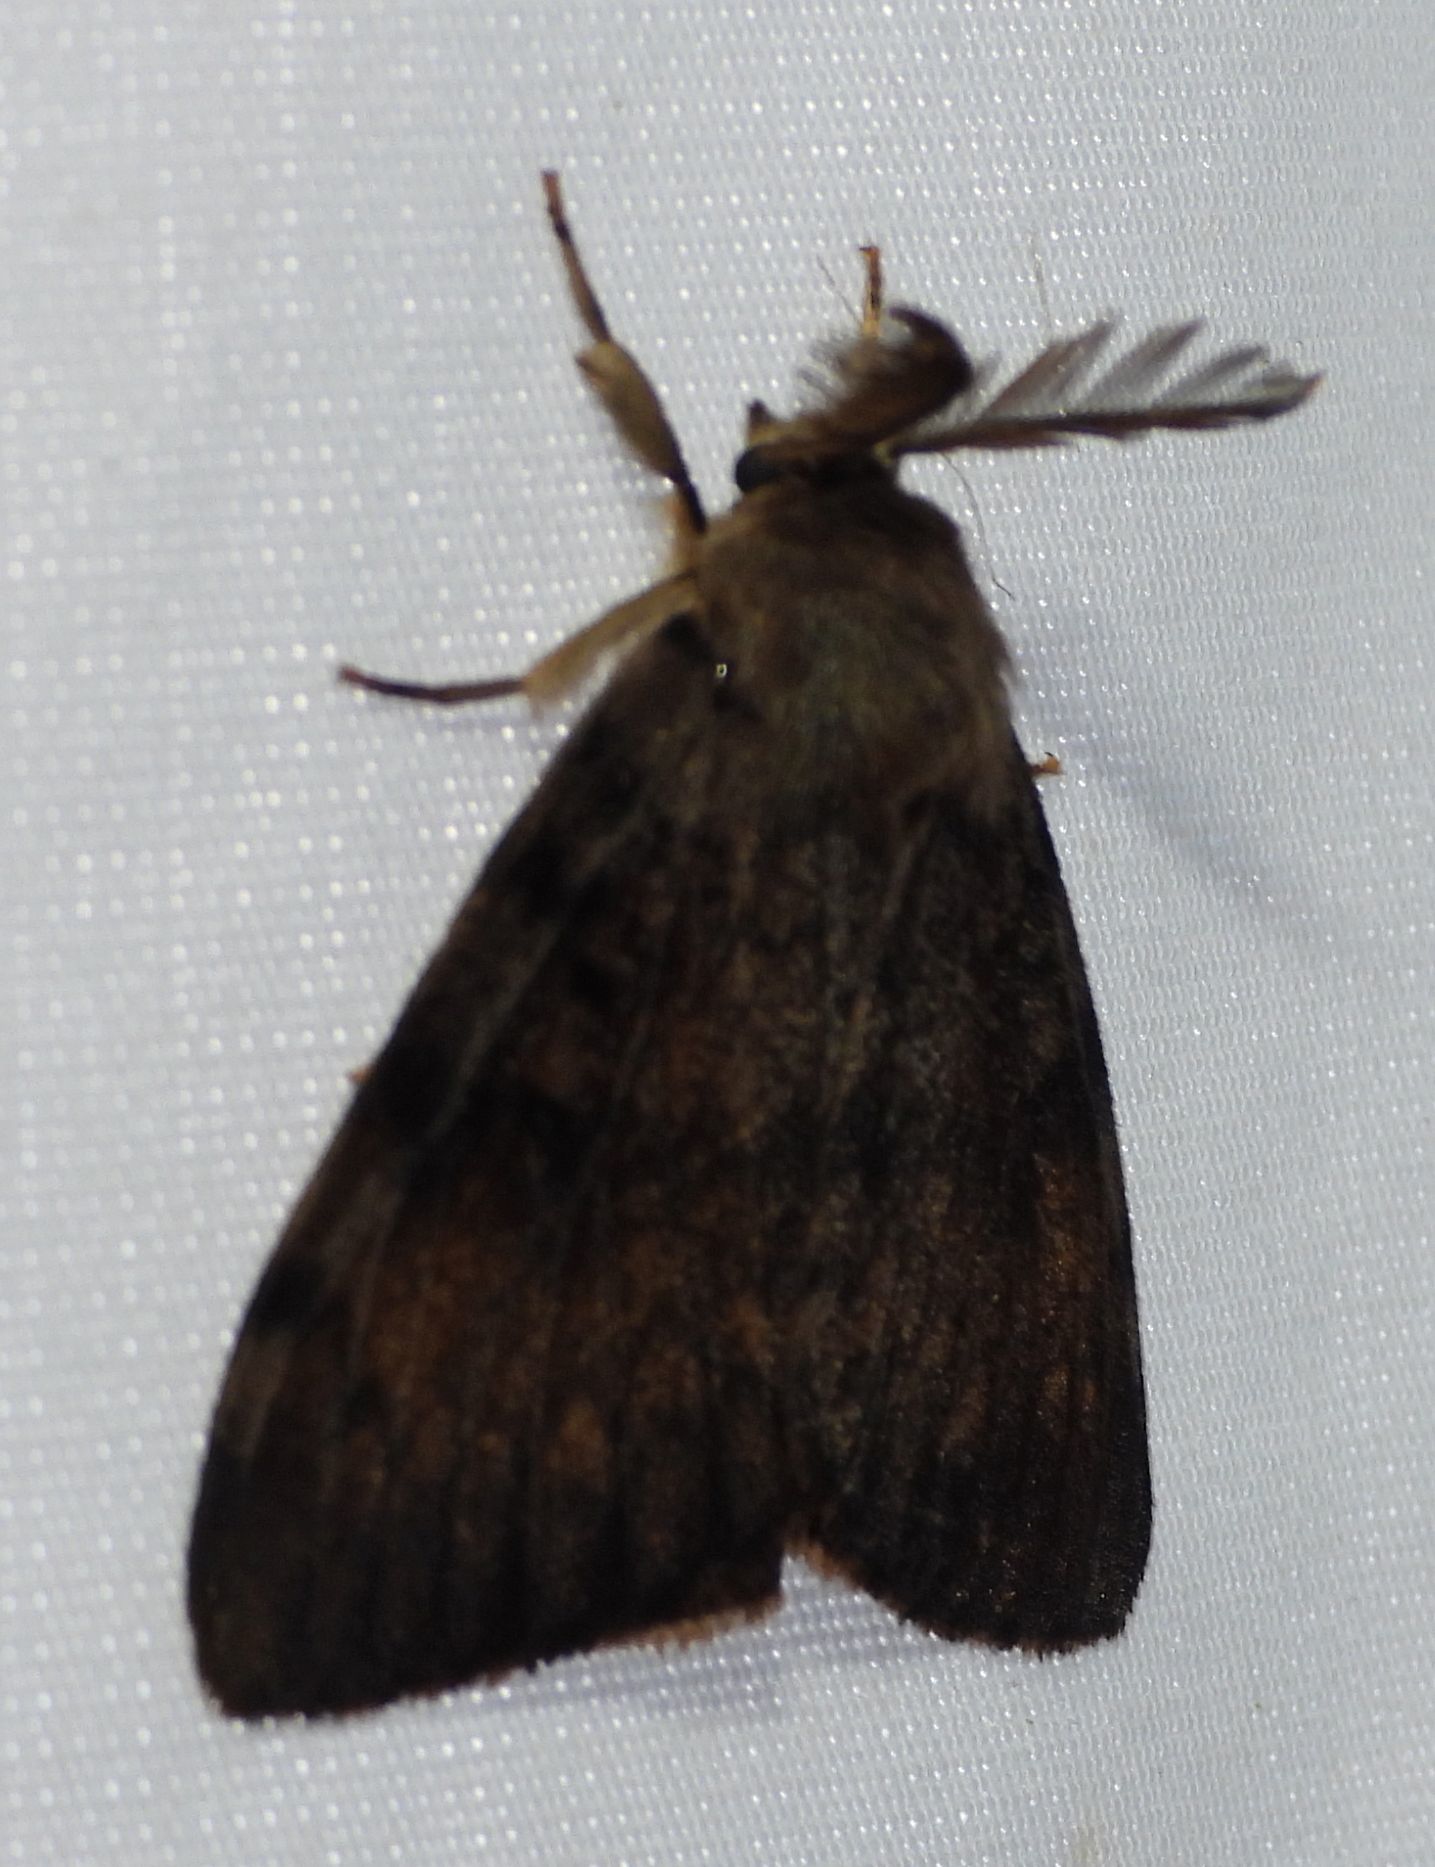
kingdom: Animalia
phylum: Arthropoda
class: Insecta
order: Lepidoptera
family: Erebidae
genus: Lymantria
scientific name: Lymantria dispar
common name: Gypsy moth
